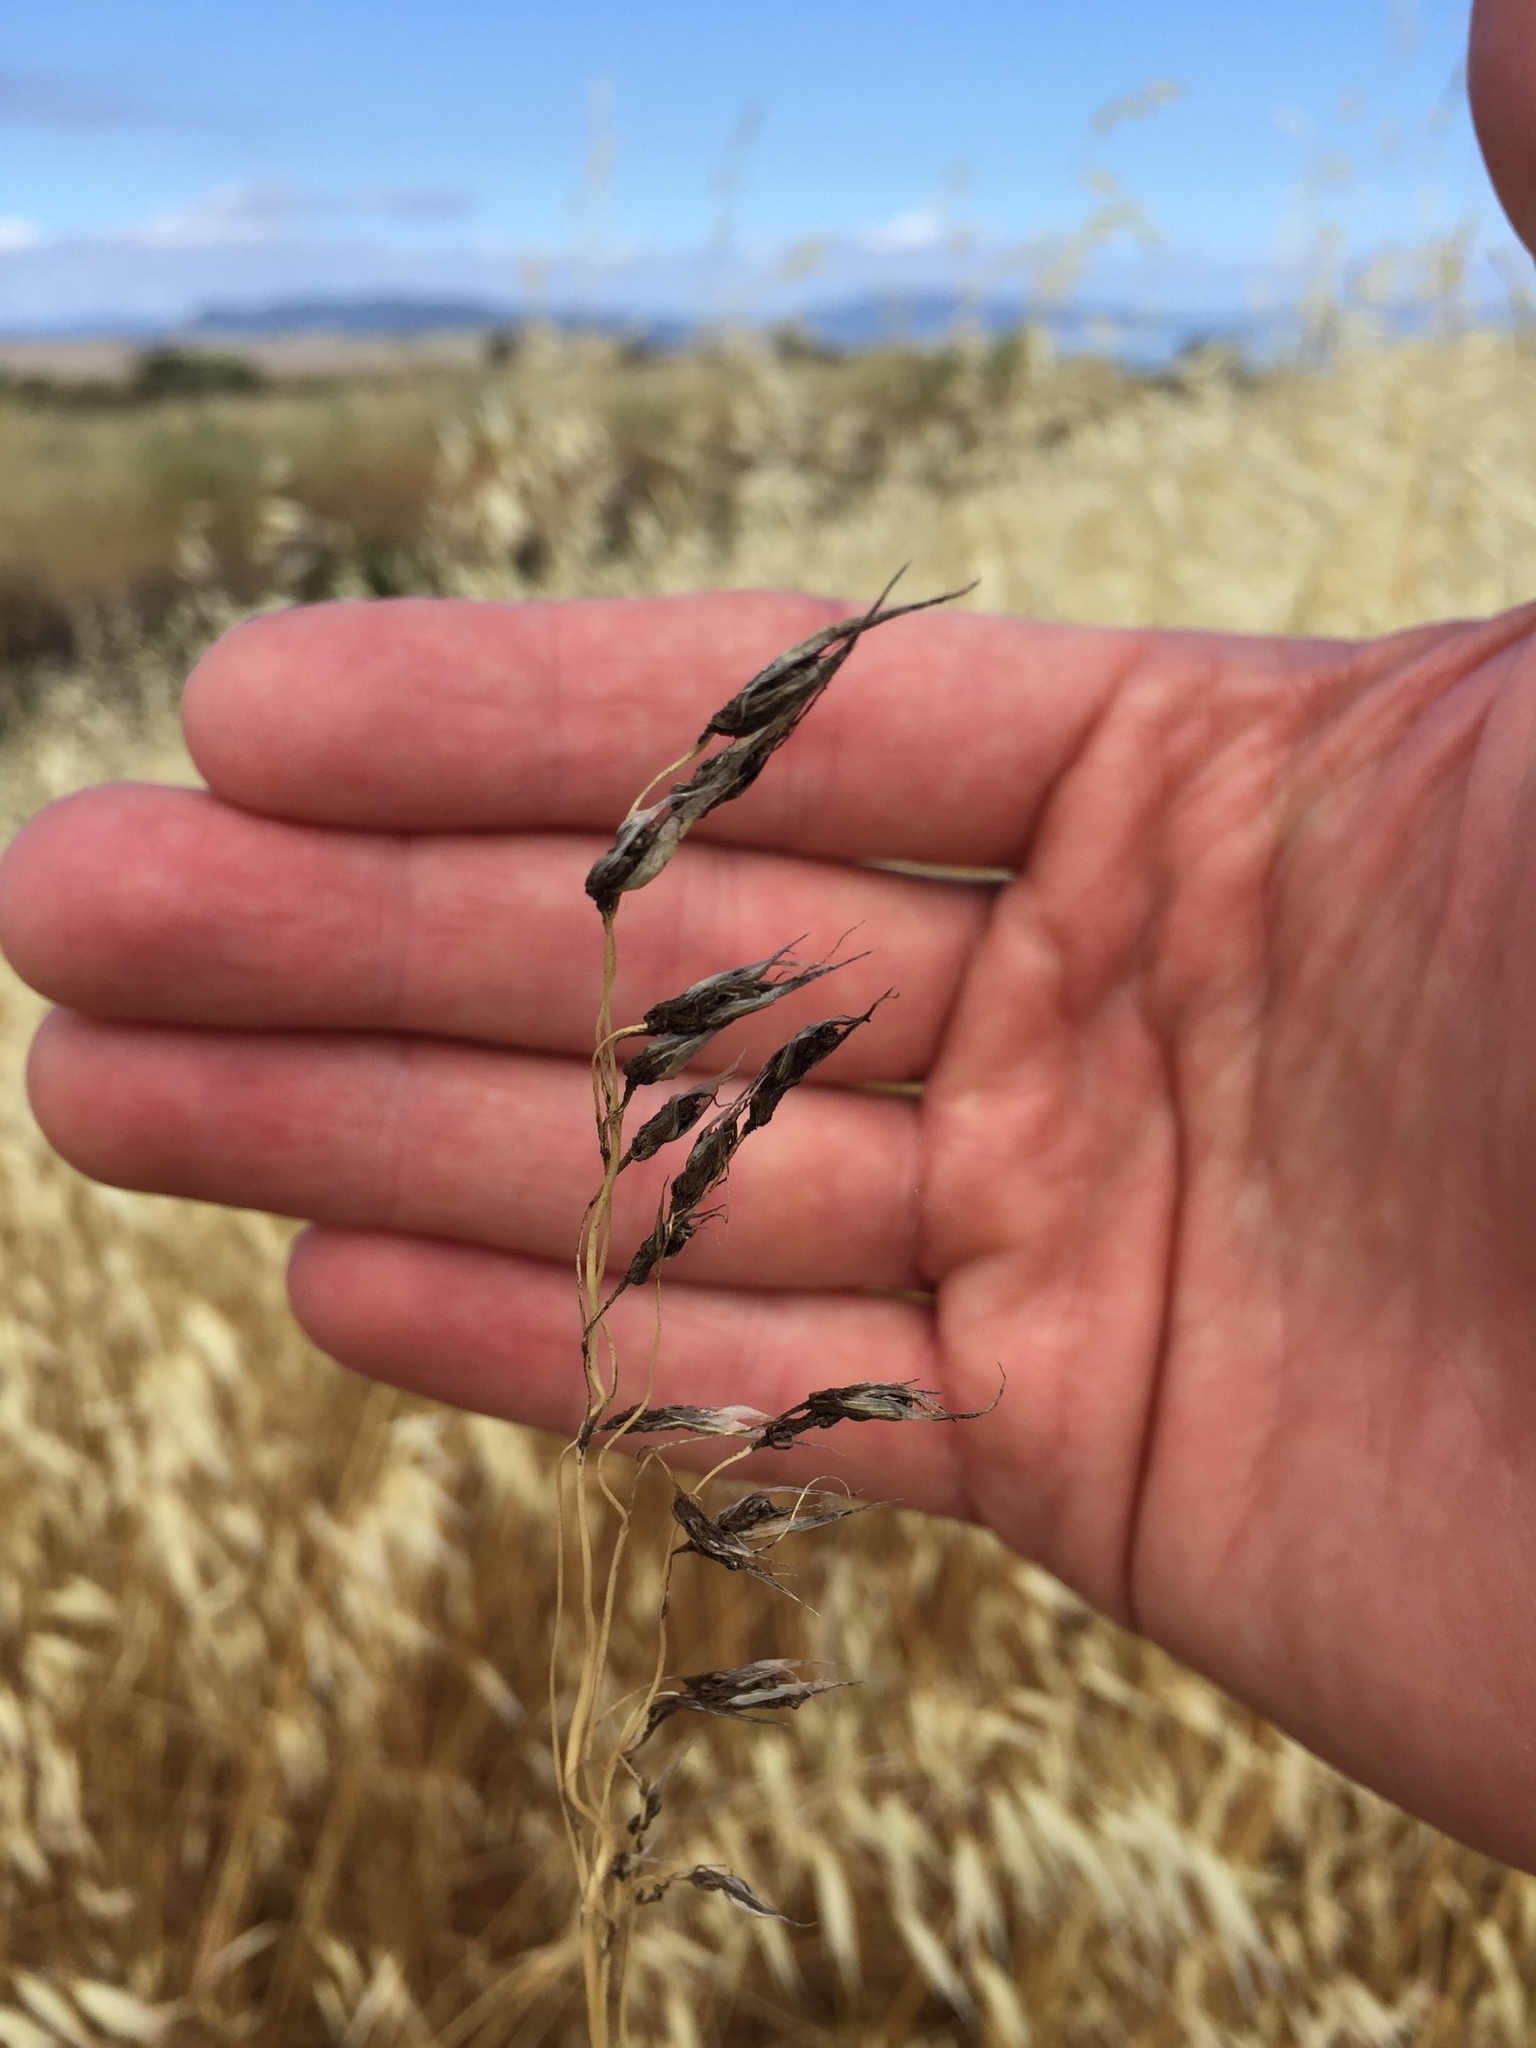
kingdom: Fungi
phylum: Basidiomycota
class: Ustilaginomycetes
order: Ustilaginales
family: Ustilaginaceae
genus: Ustilago
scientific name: Ustilago avenae
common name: Loose smut of oats & oat grass
